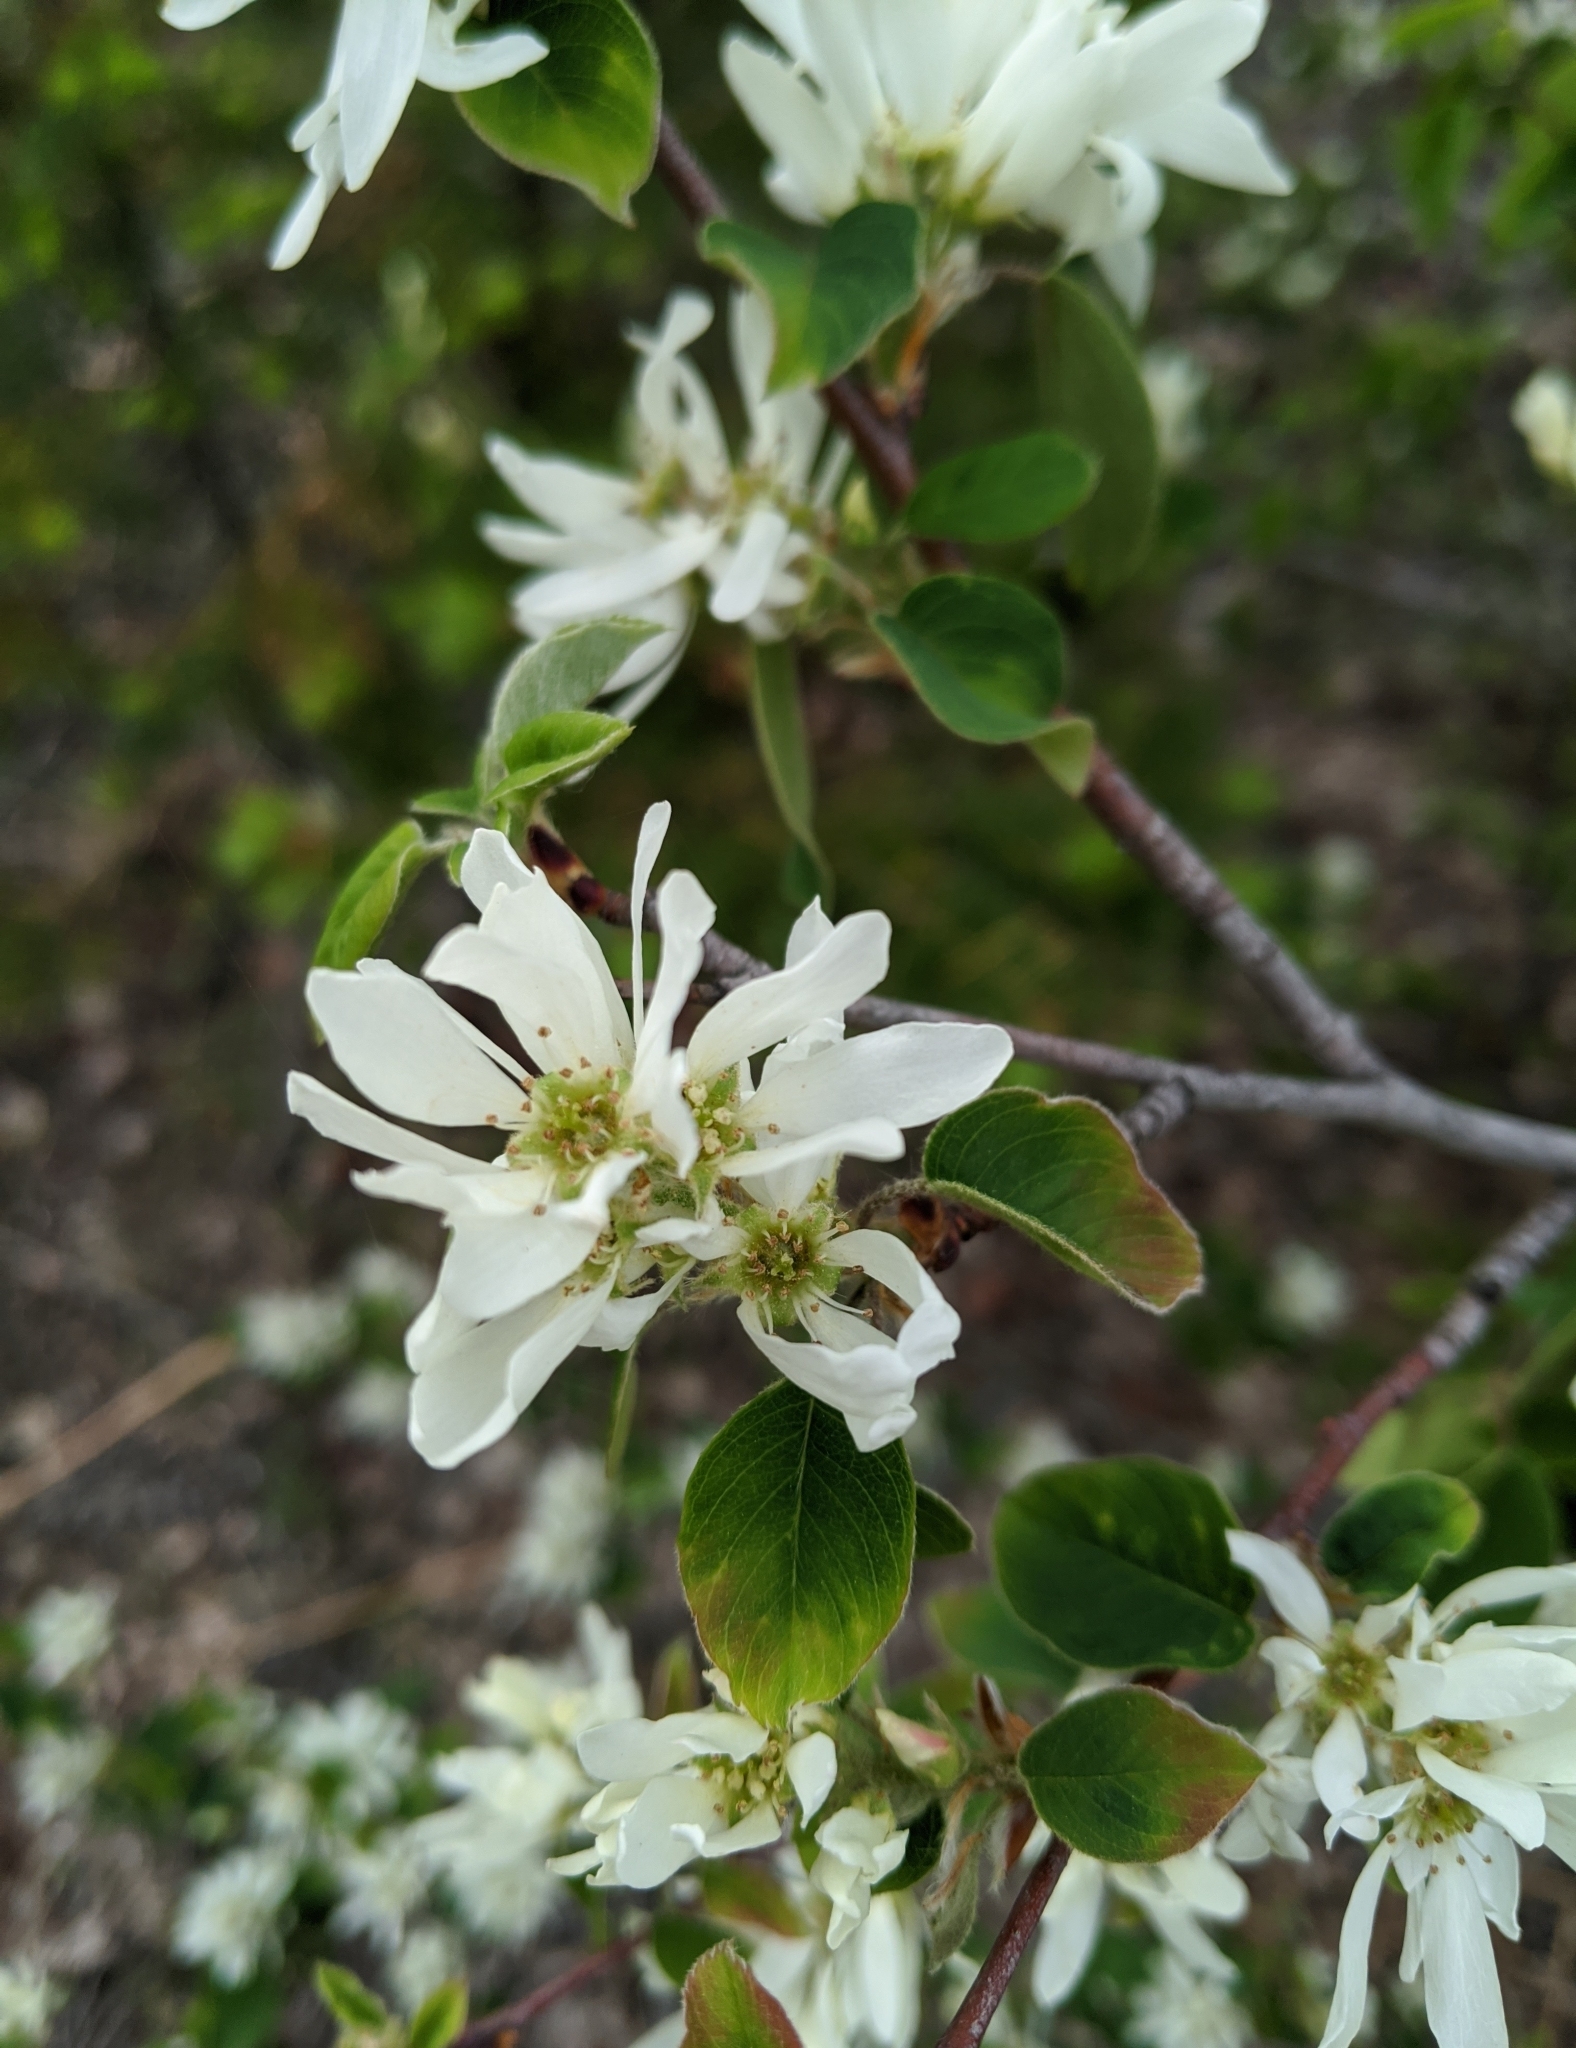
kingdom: Plantae
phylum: Tracheophyta
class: Magnoliopsida
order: Rosales
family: Rosaceae
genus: Amelanchier
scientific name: Amelanchier alnifolia
